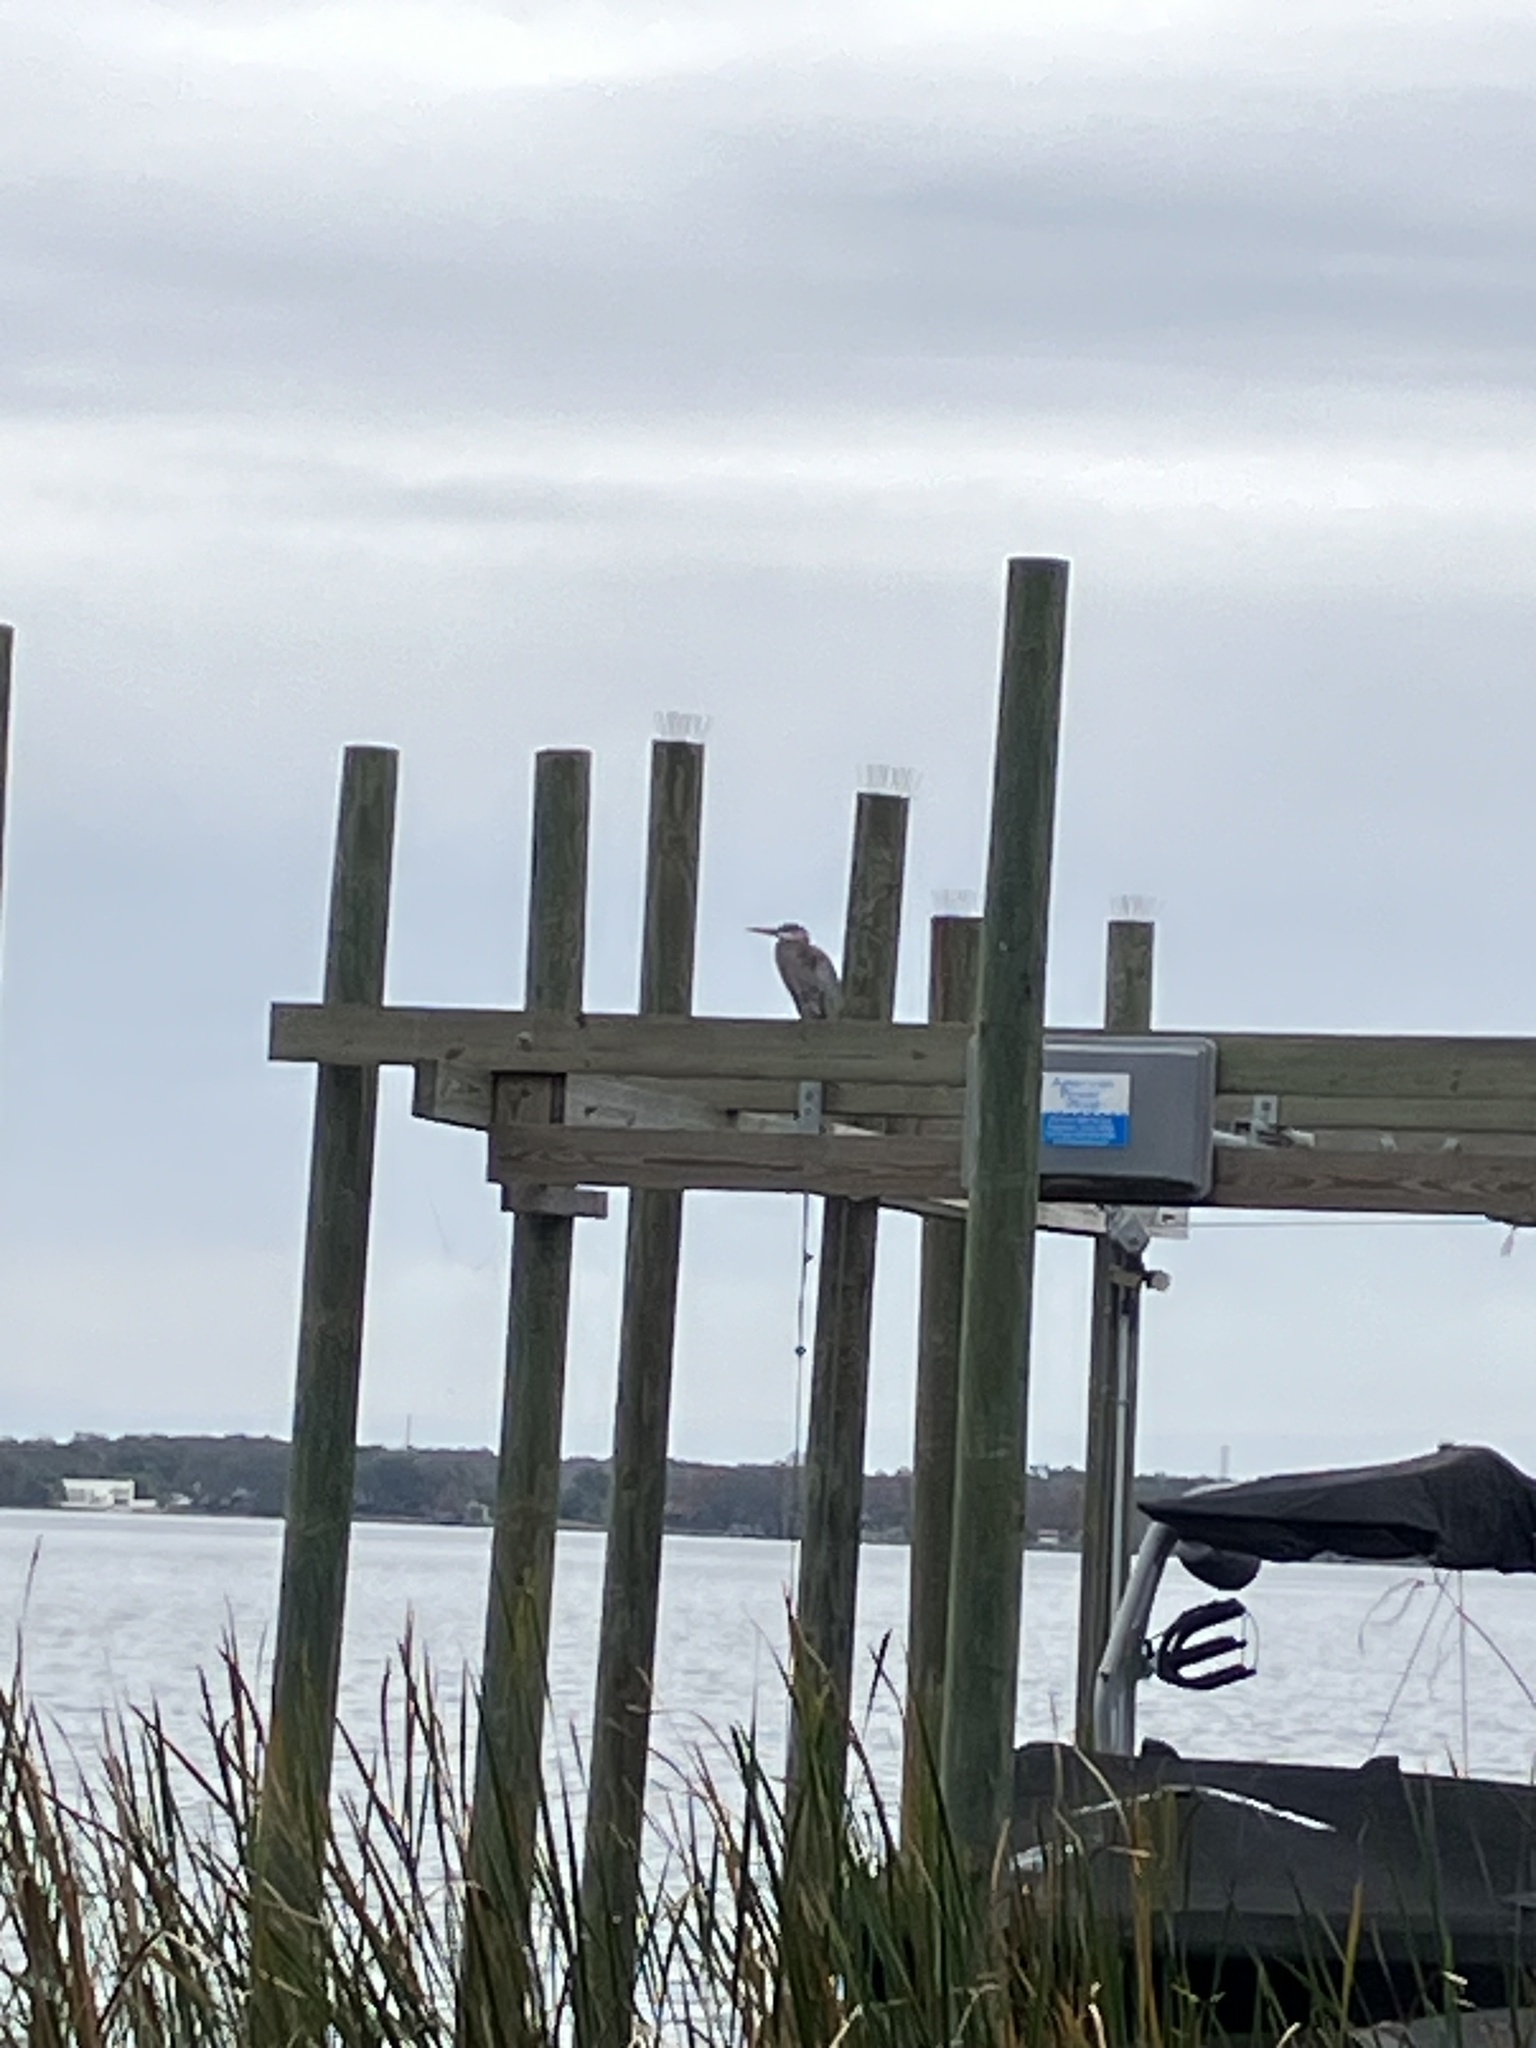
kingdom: Animalia
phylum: Chordata
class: Aves
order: Pelecaniformes
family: Ardeidae
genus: Ardea
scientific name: Ardea herodias
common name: Great blue heron
